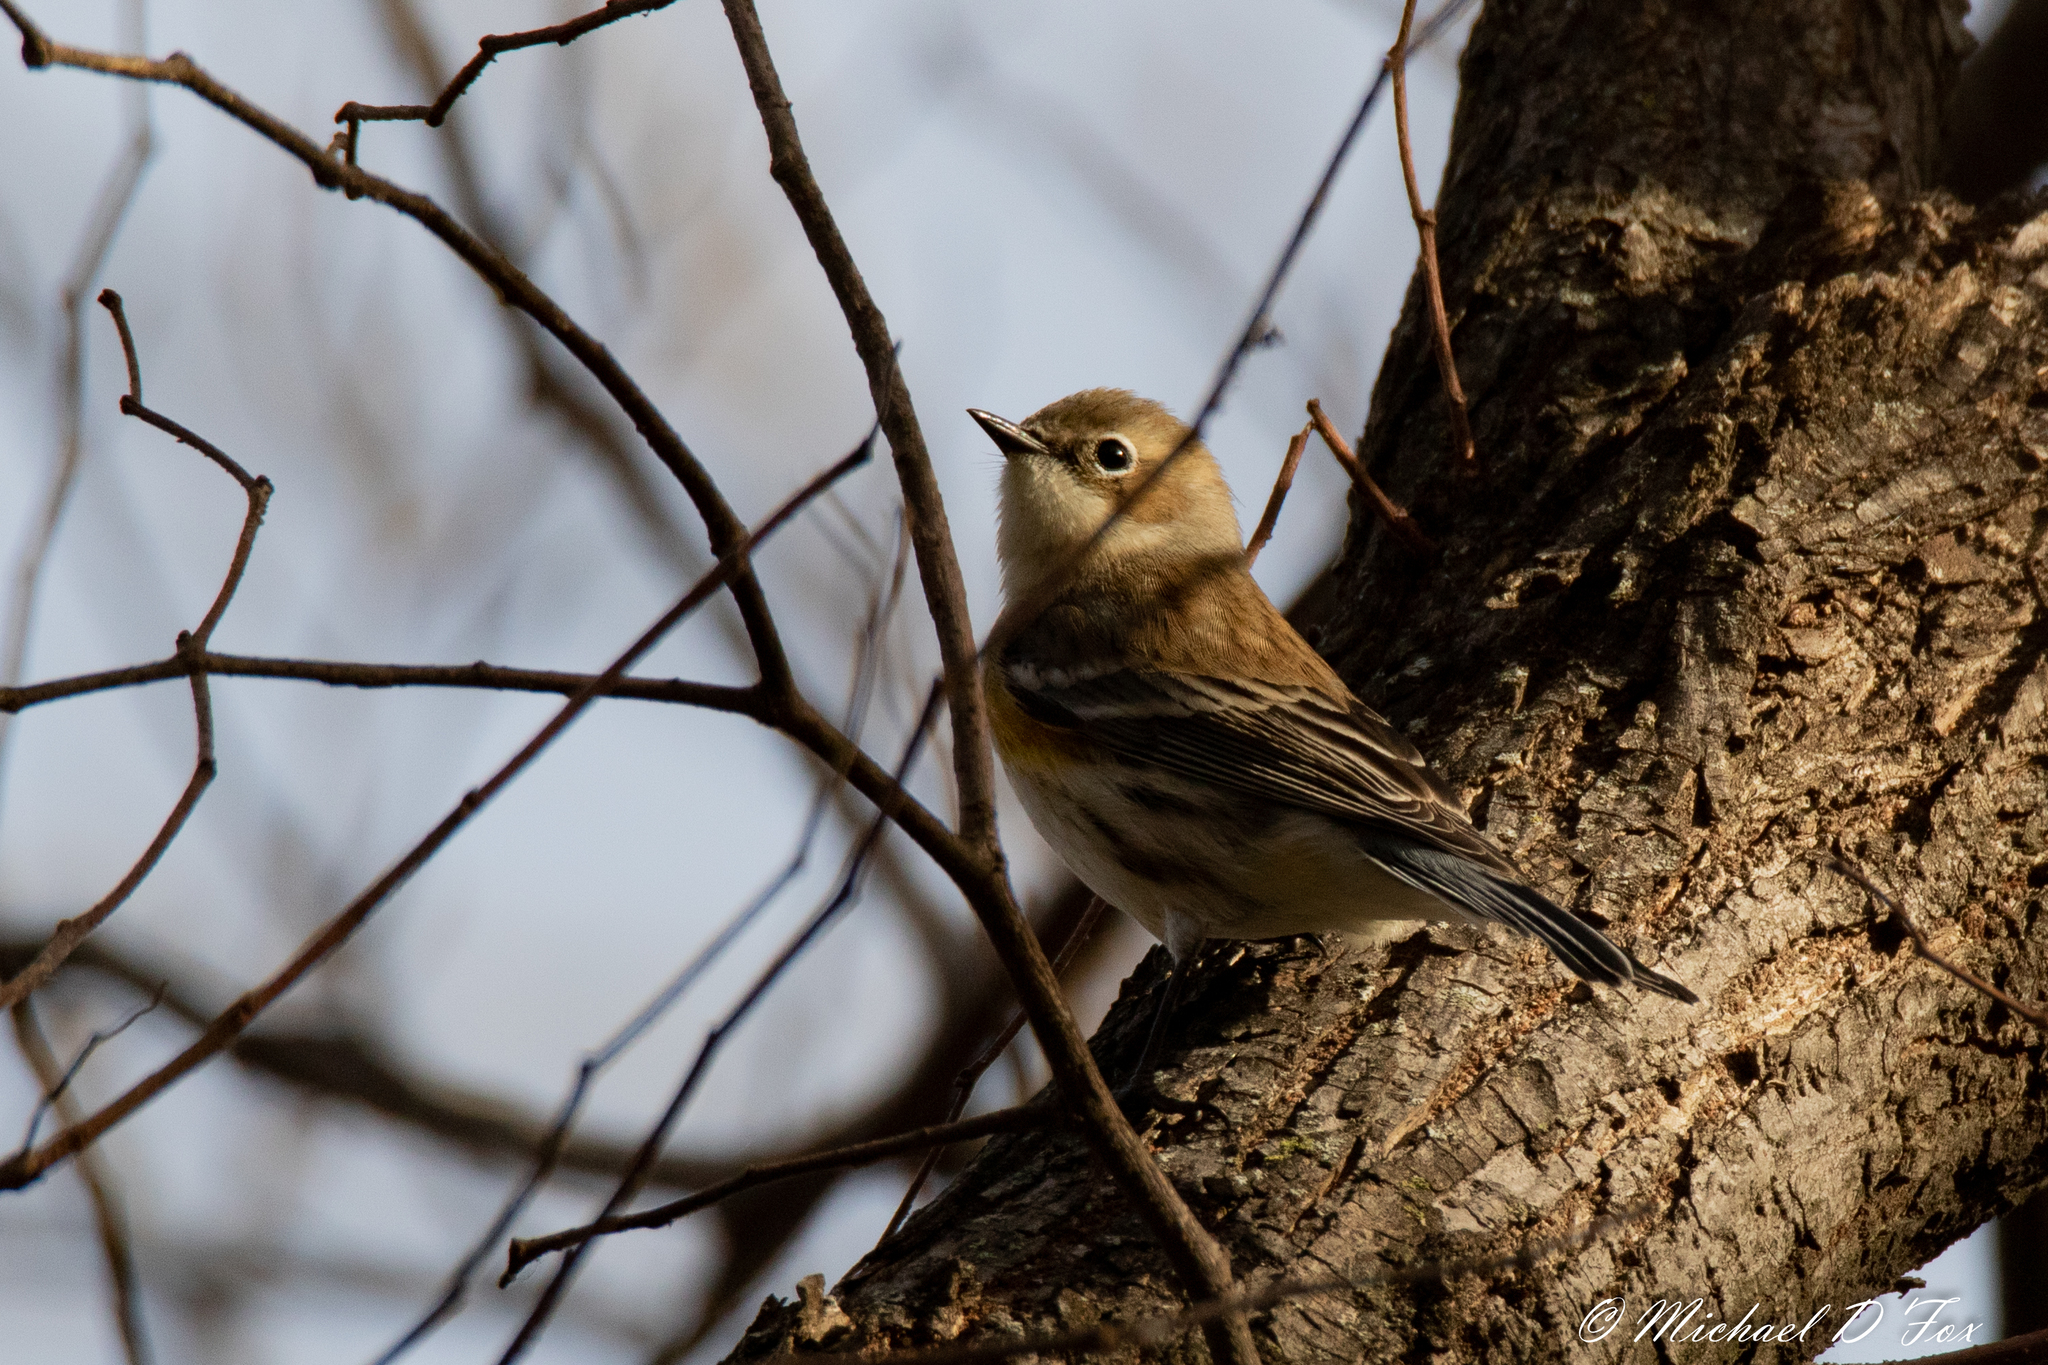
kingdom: Animalia
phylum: Chordata
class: Aves
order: Passeriformes
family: Parulidae
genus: Setophaga
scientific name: Setophaga coronata
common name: Myrtle warbler
